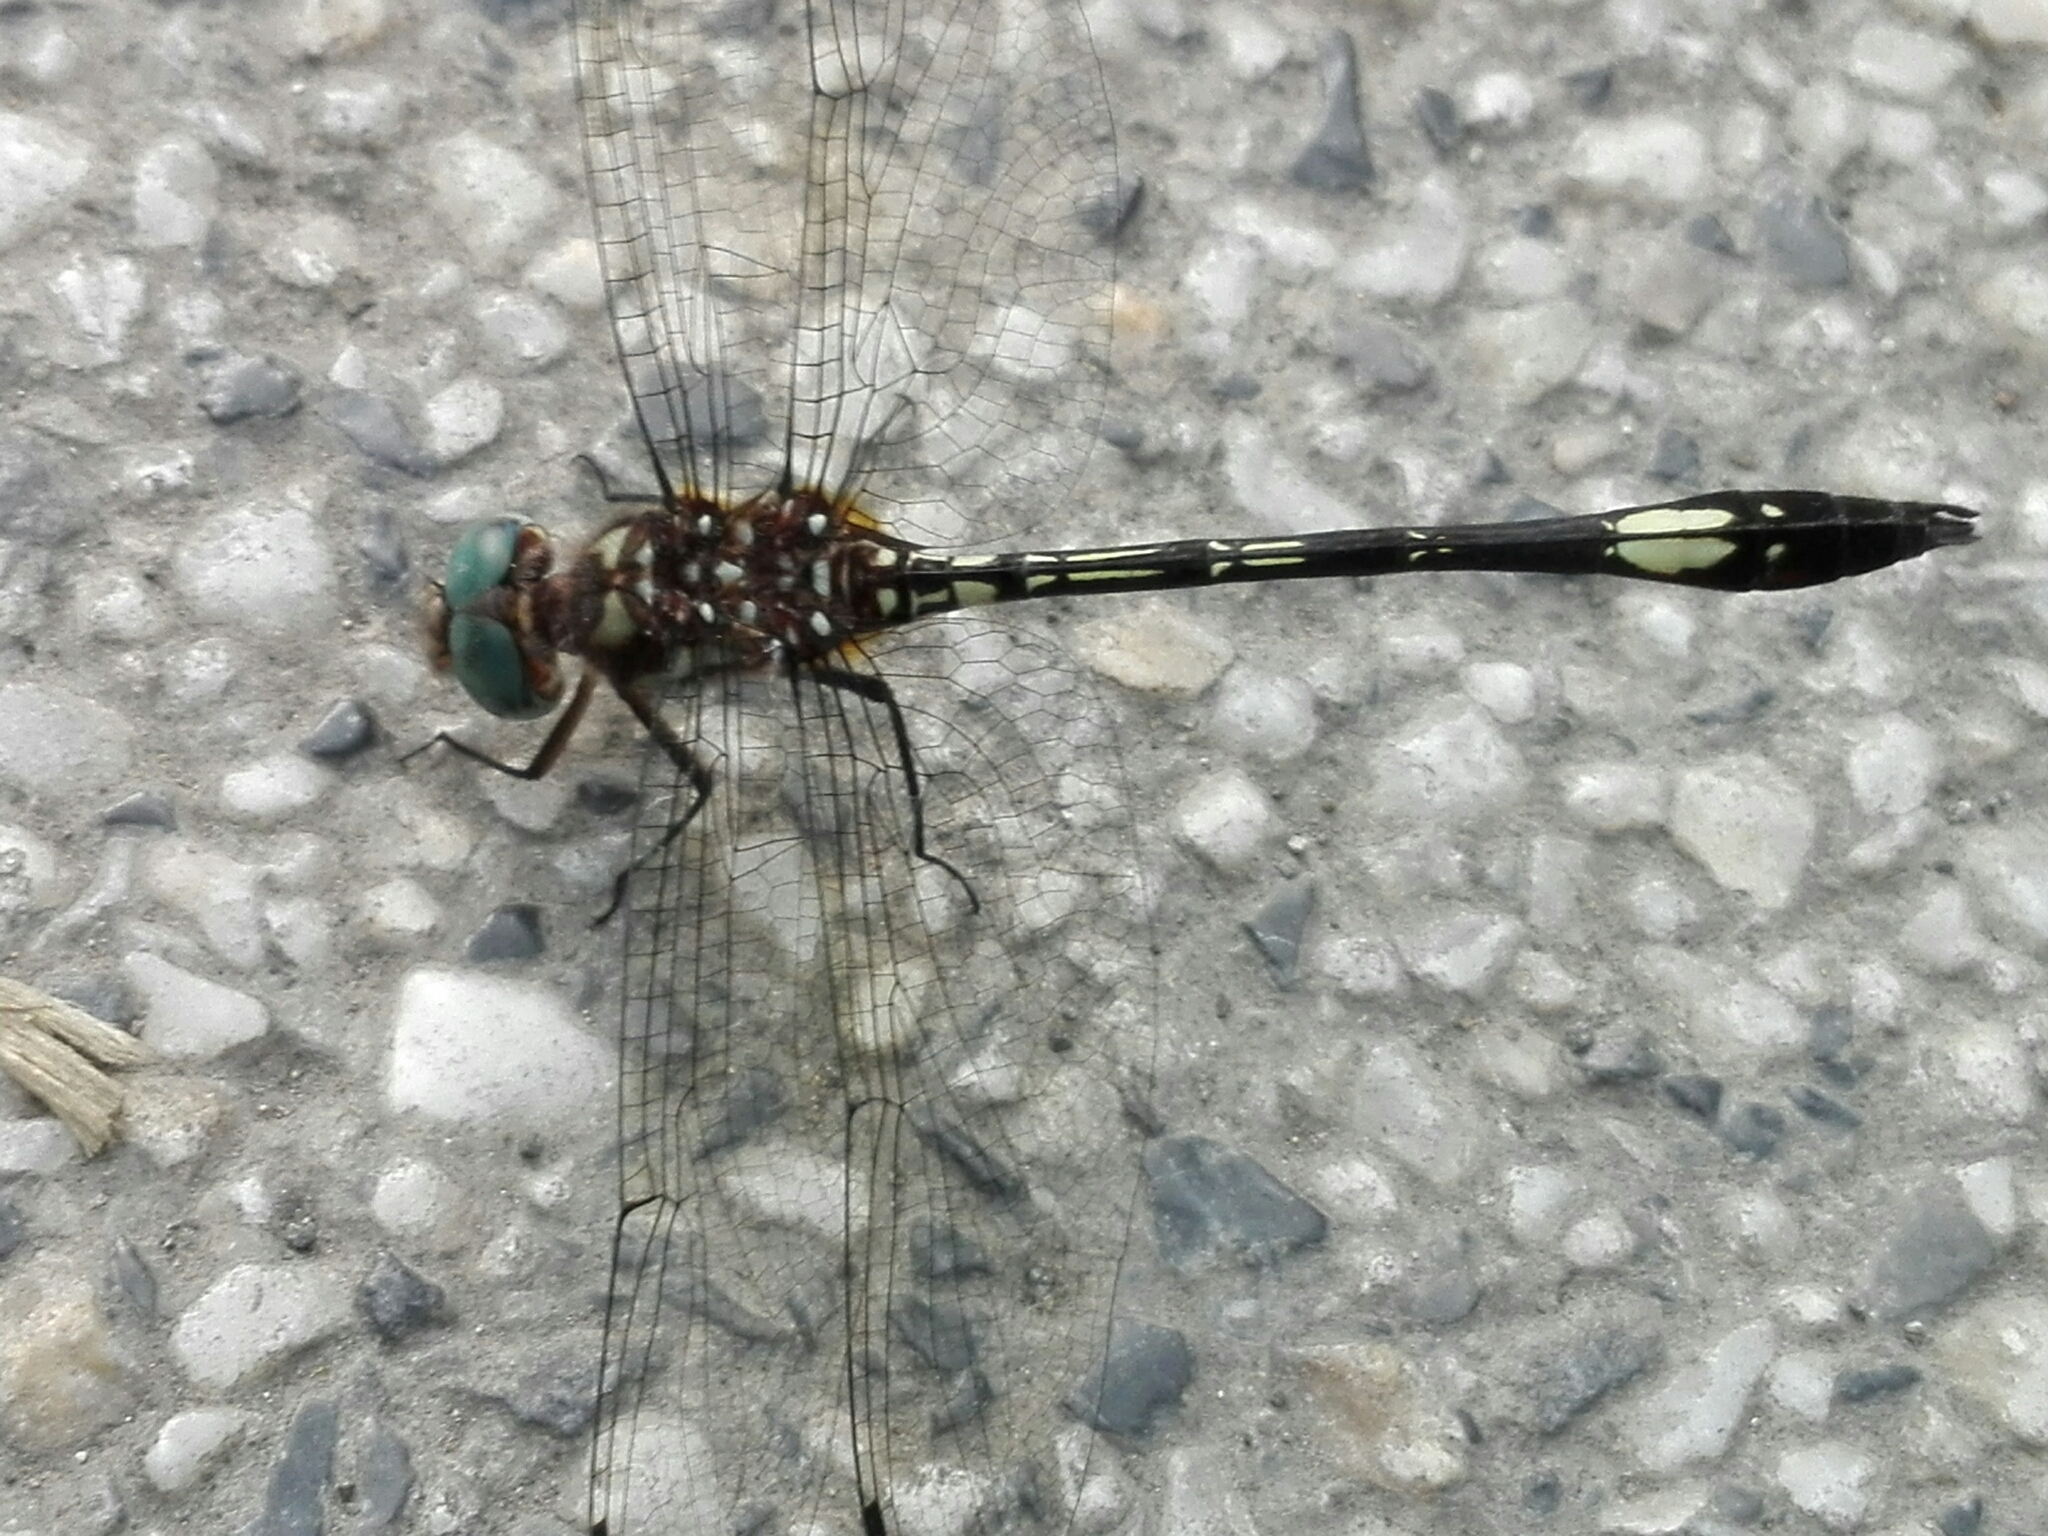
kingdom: Animalia
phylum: Arthropoda
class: Insecta
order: Odonata
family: Libellulidae
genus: Brechmorhoga
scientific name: Brechmorhoga mendax
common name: Pale-faced clubskimmer
